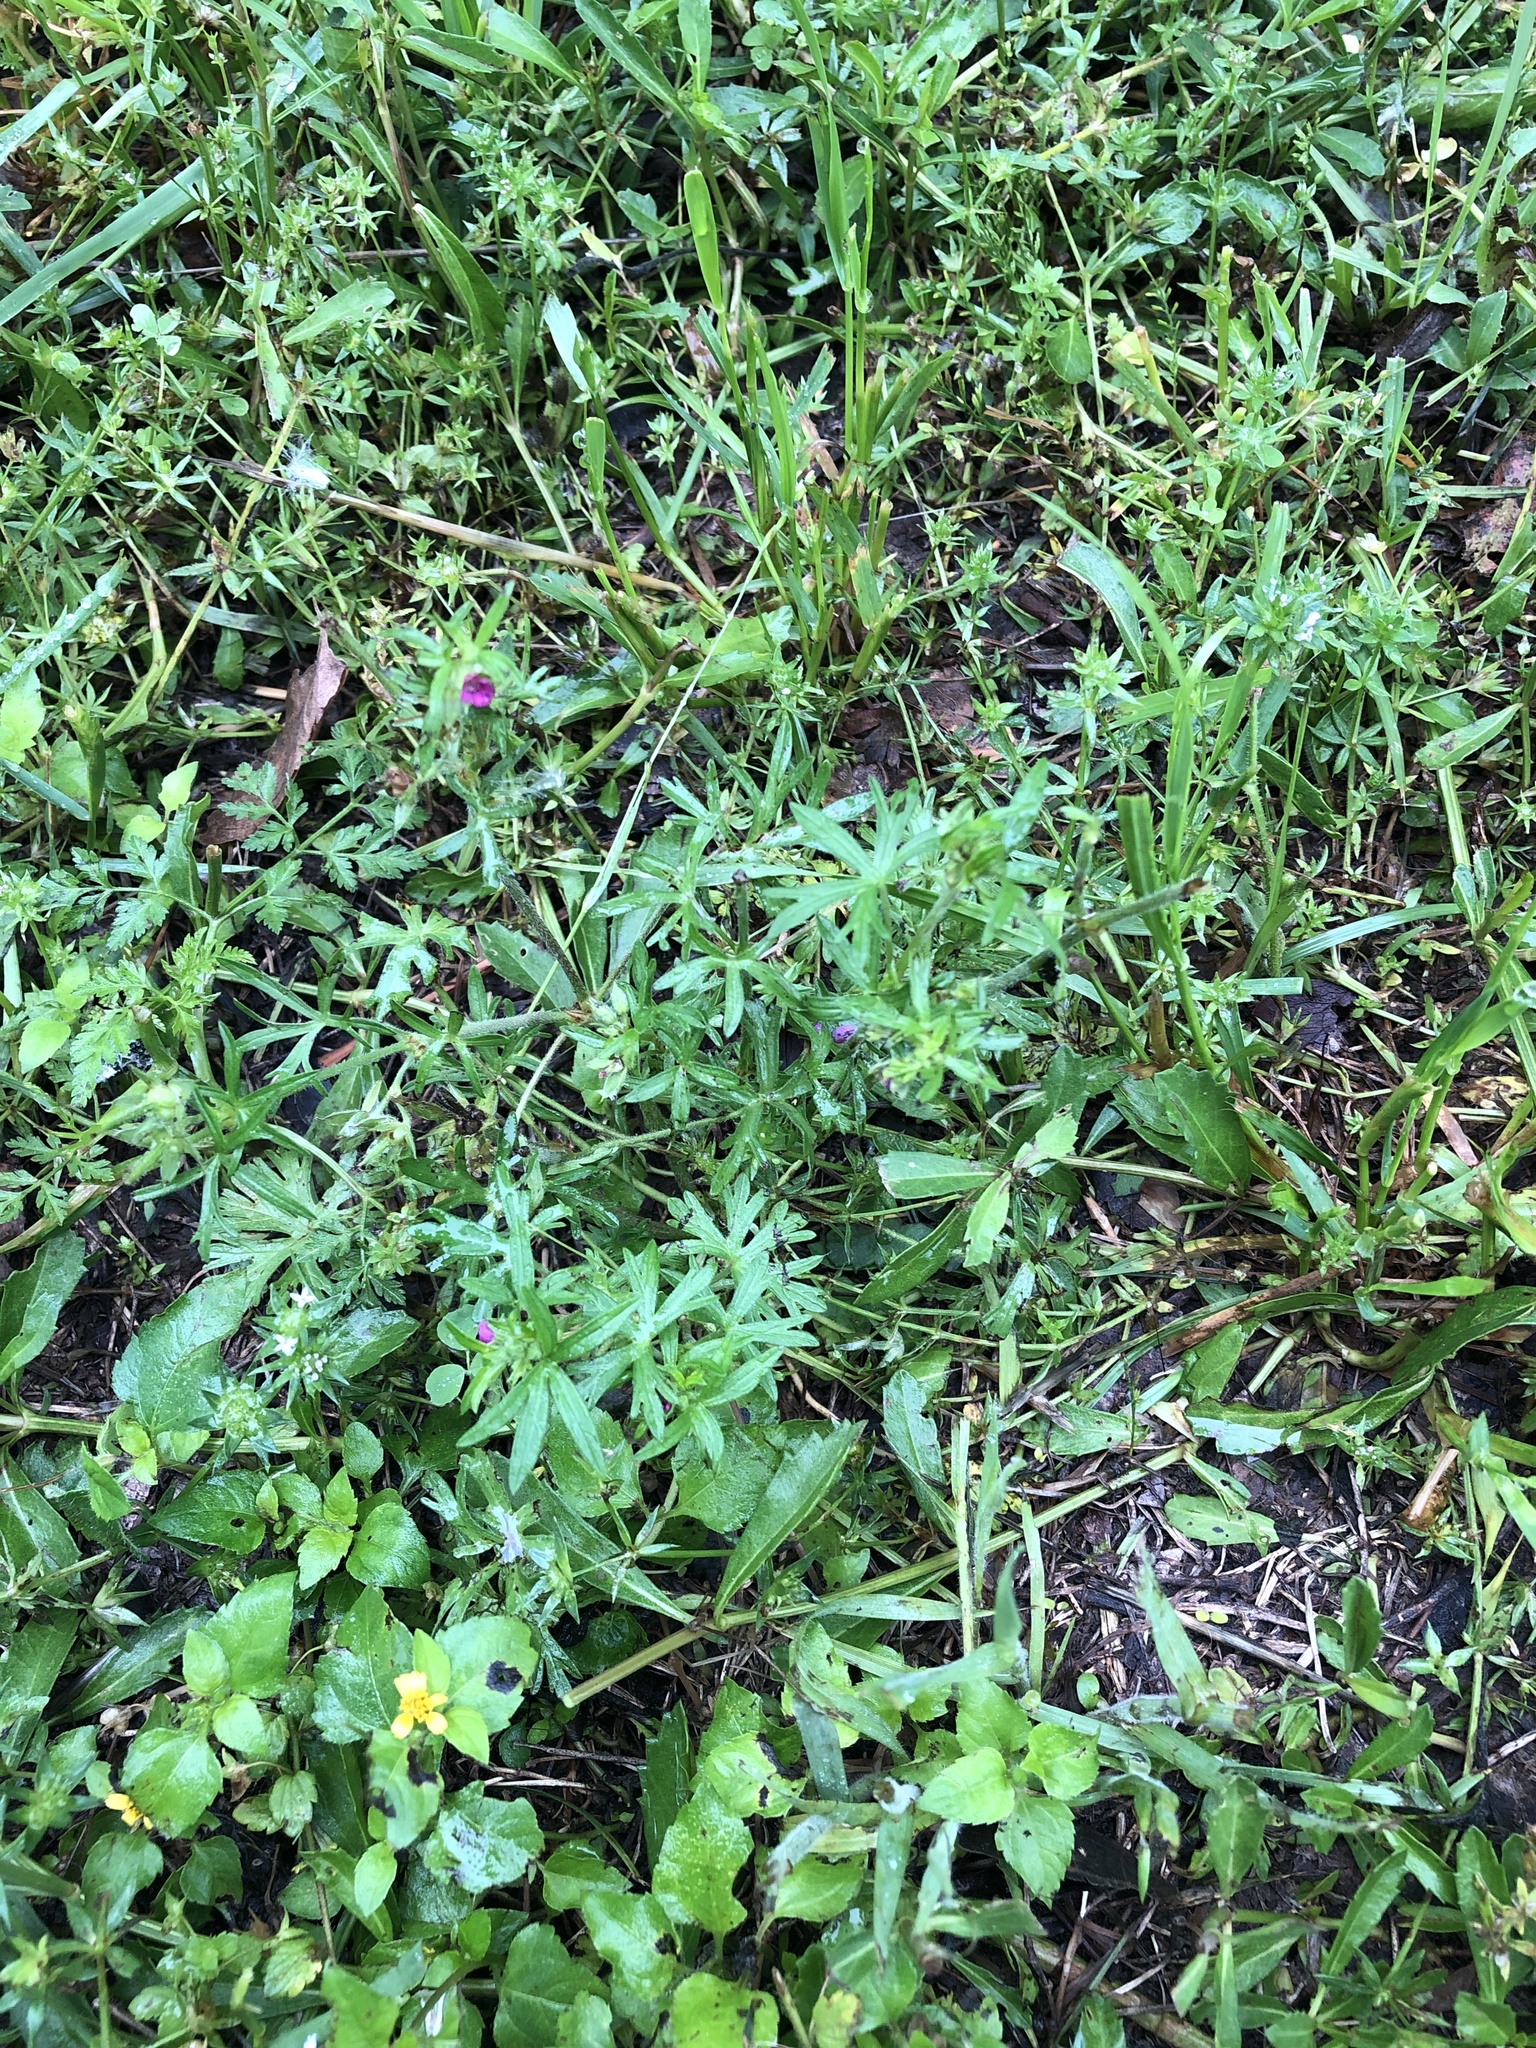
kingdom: Plantae
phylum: Tracheophyta
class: Magnoliopsida
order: Geraniales
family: Geraniaceae
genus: Geranium
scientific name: Geranium dissectum
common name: Cut-leaved crane's-bill
